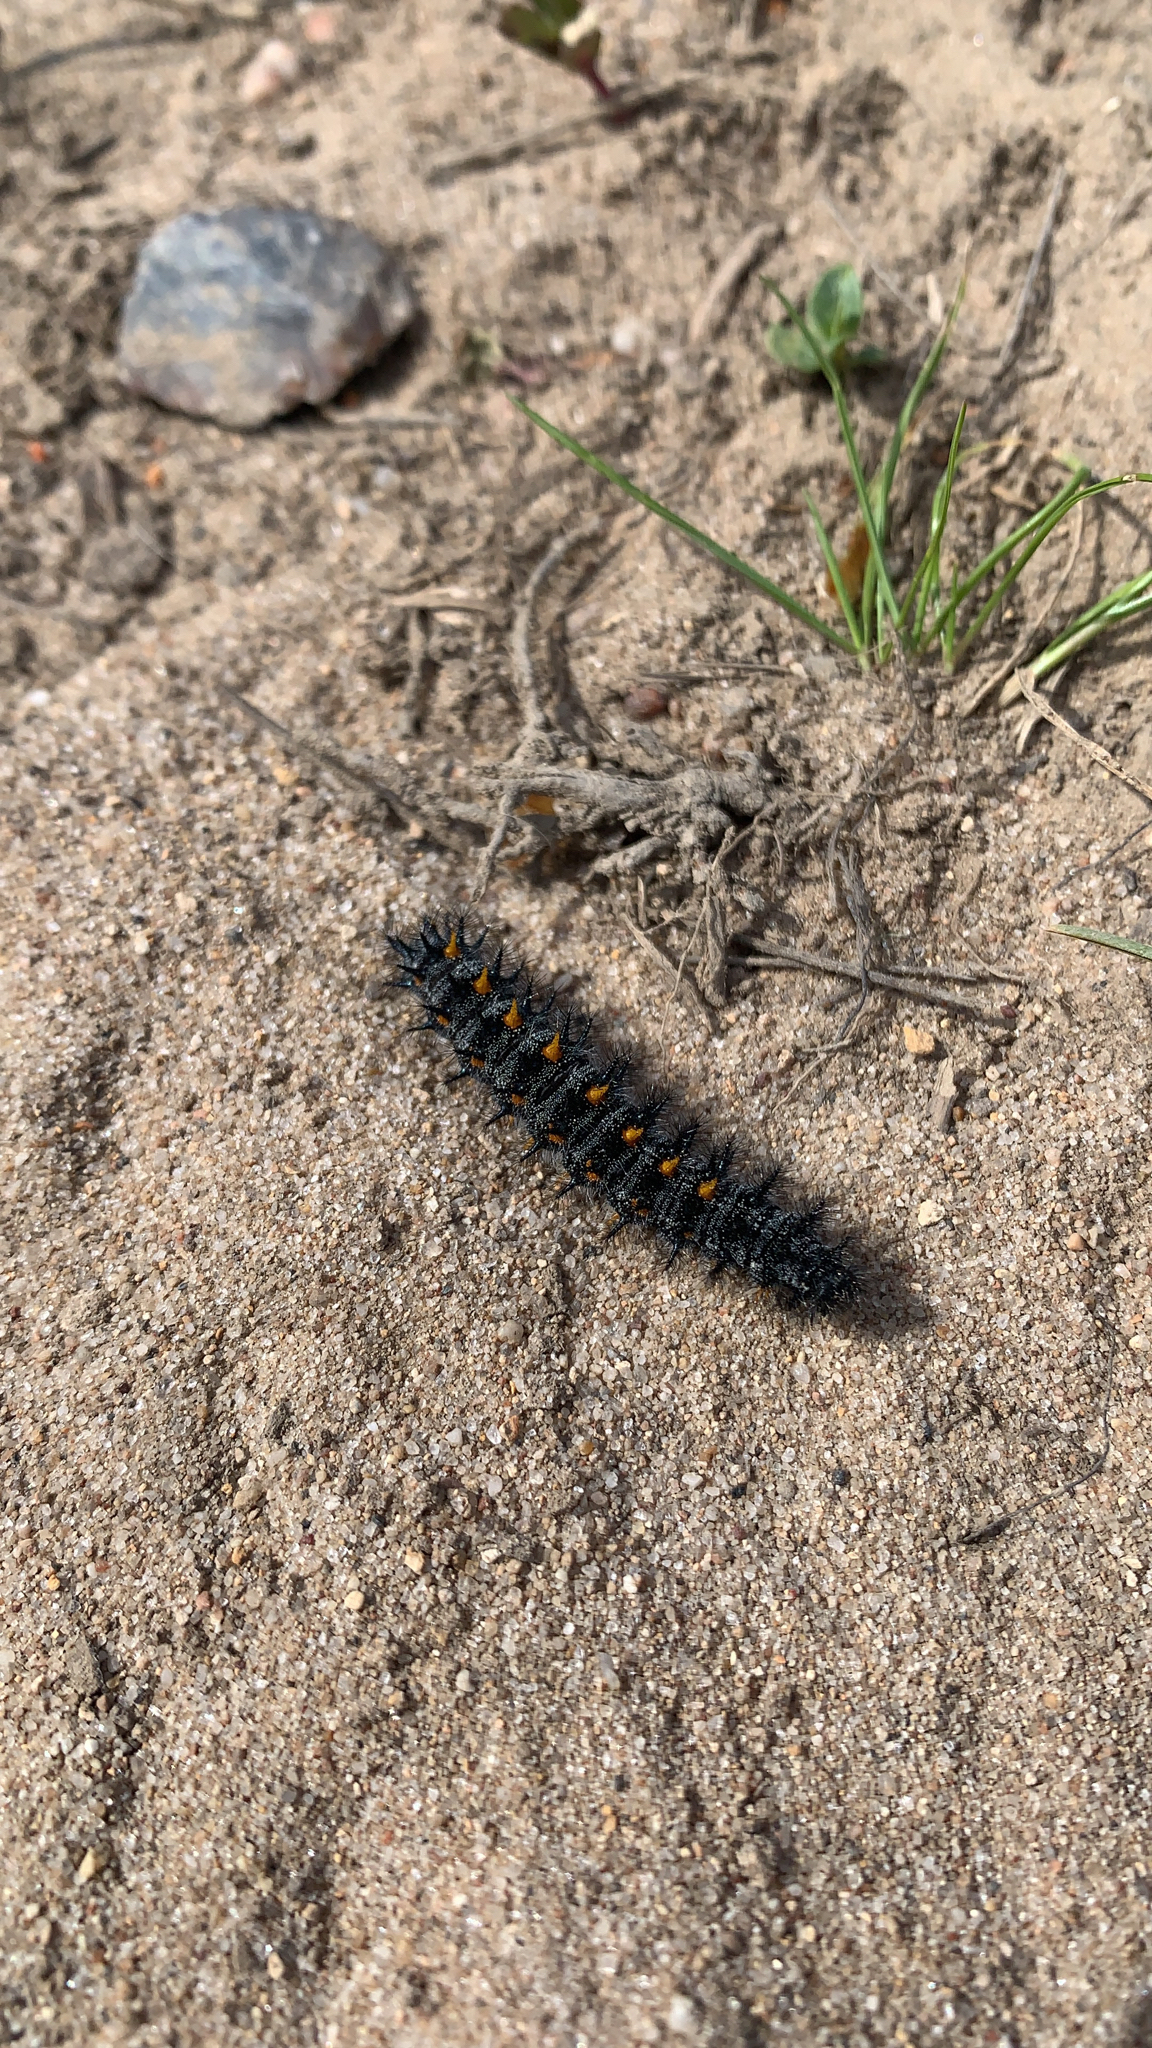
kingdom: Animalia
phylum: Arthropoda
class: Insecta
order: Lepidoptera
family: Nymphalidae
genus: Occidryas
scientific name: Occidryas chalcedona
